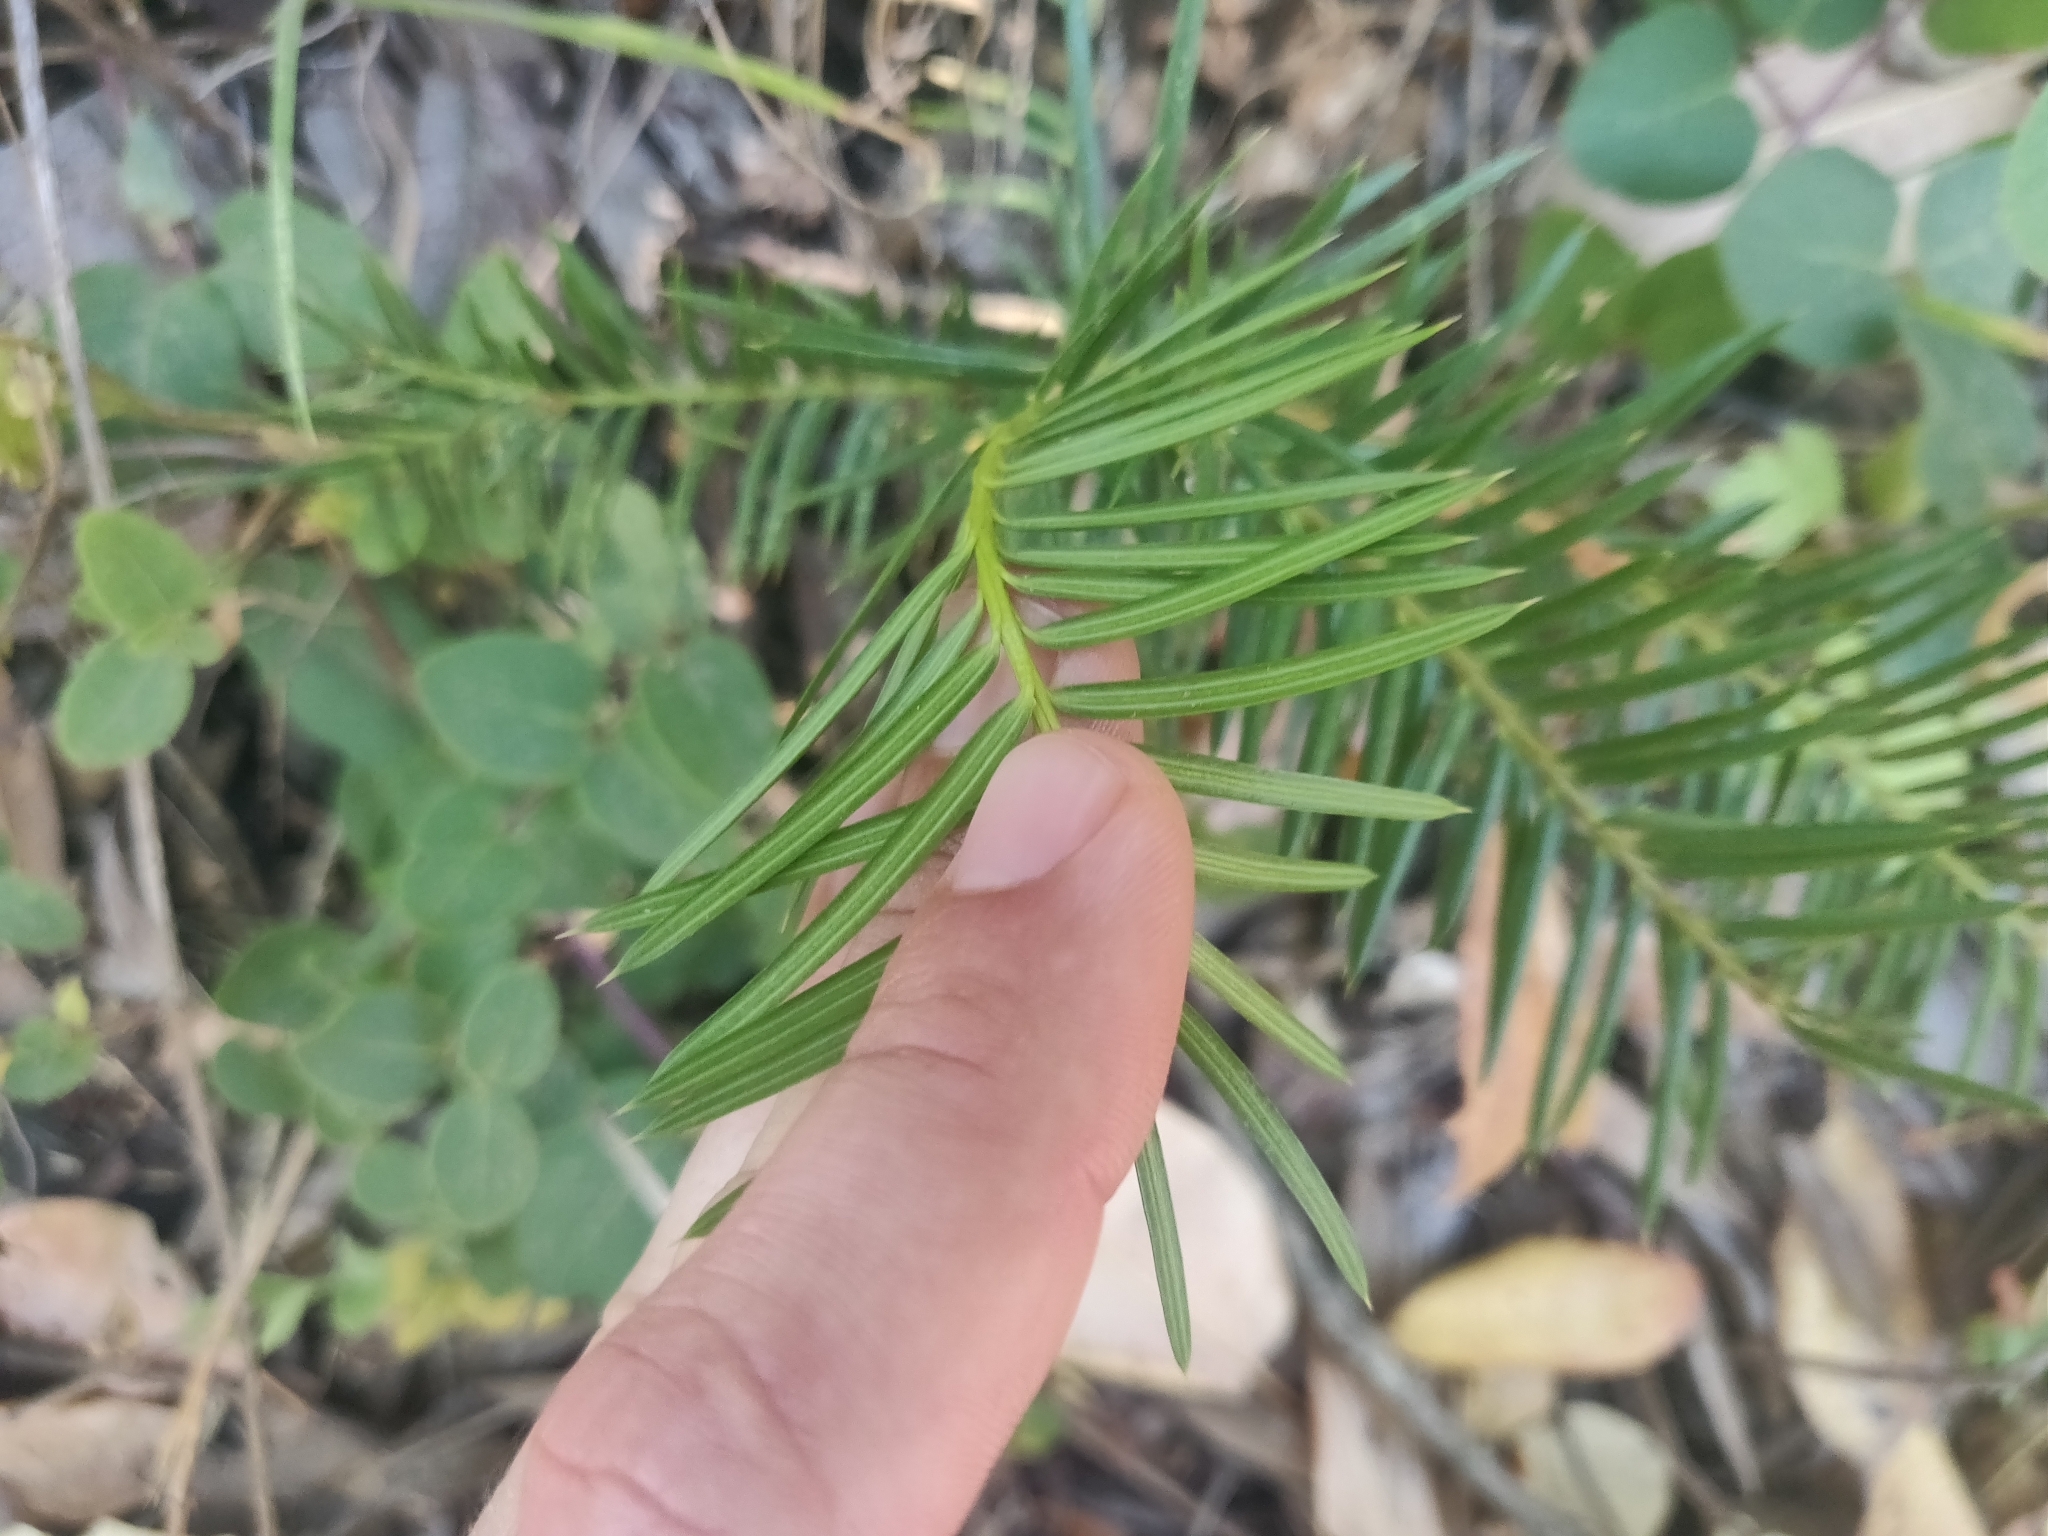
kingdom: Plantae
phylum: Tracheophyta
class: Pinopsida
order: Pinales
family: Taxaceae
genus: Torreya
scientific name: Torreya californica
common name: California torreya
